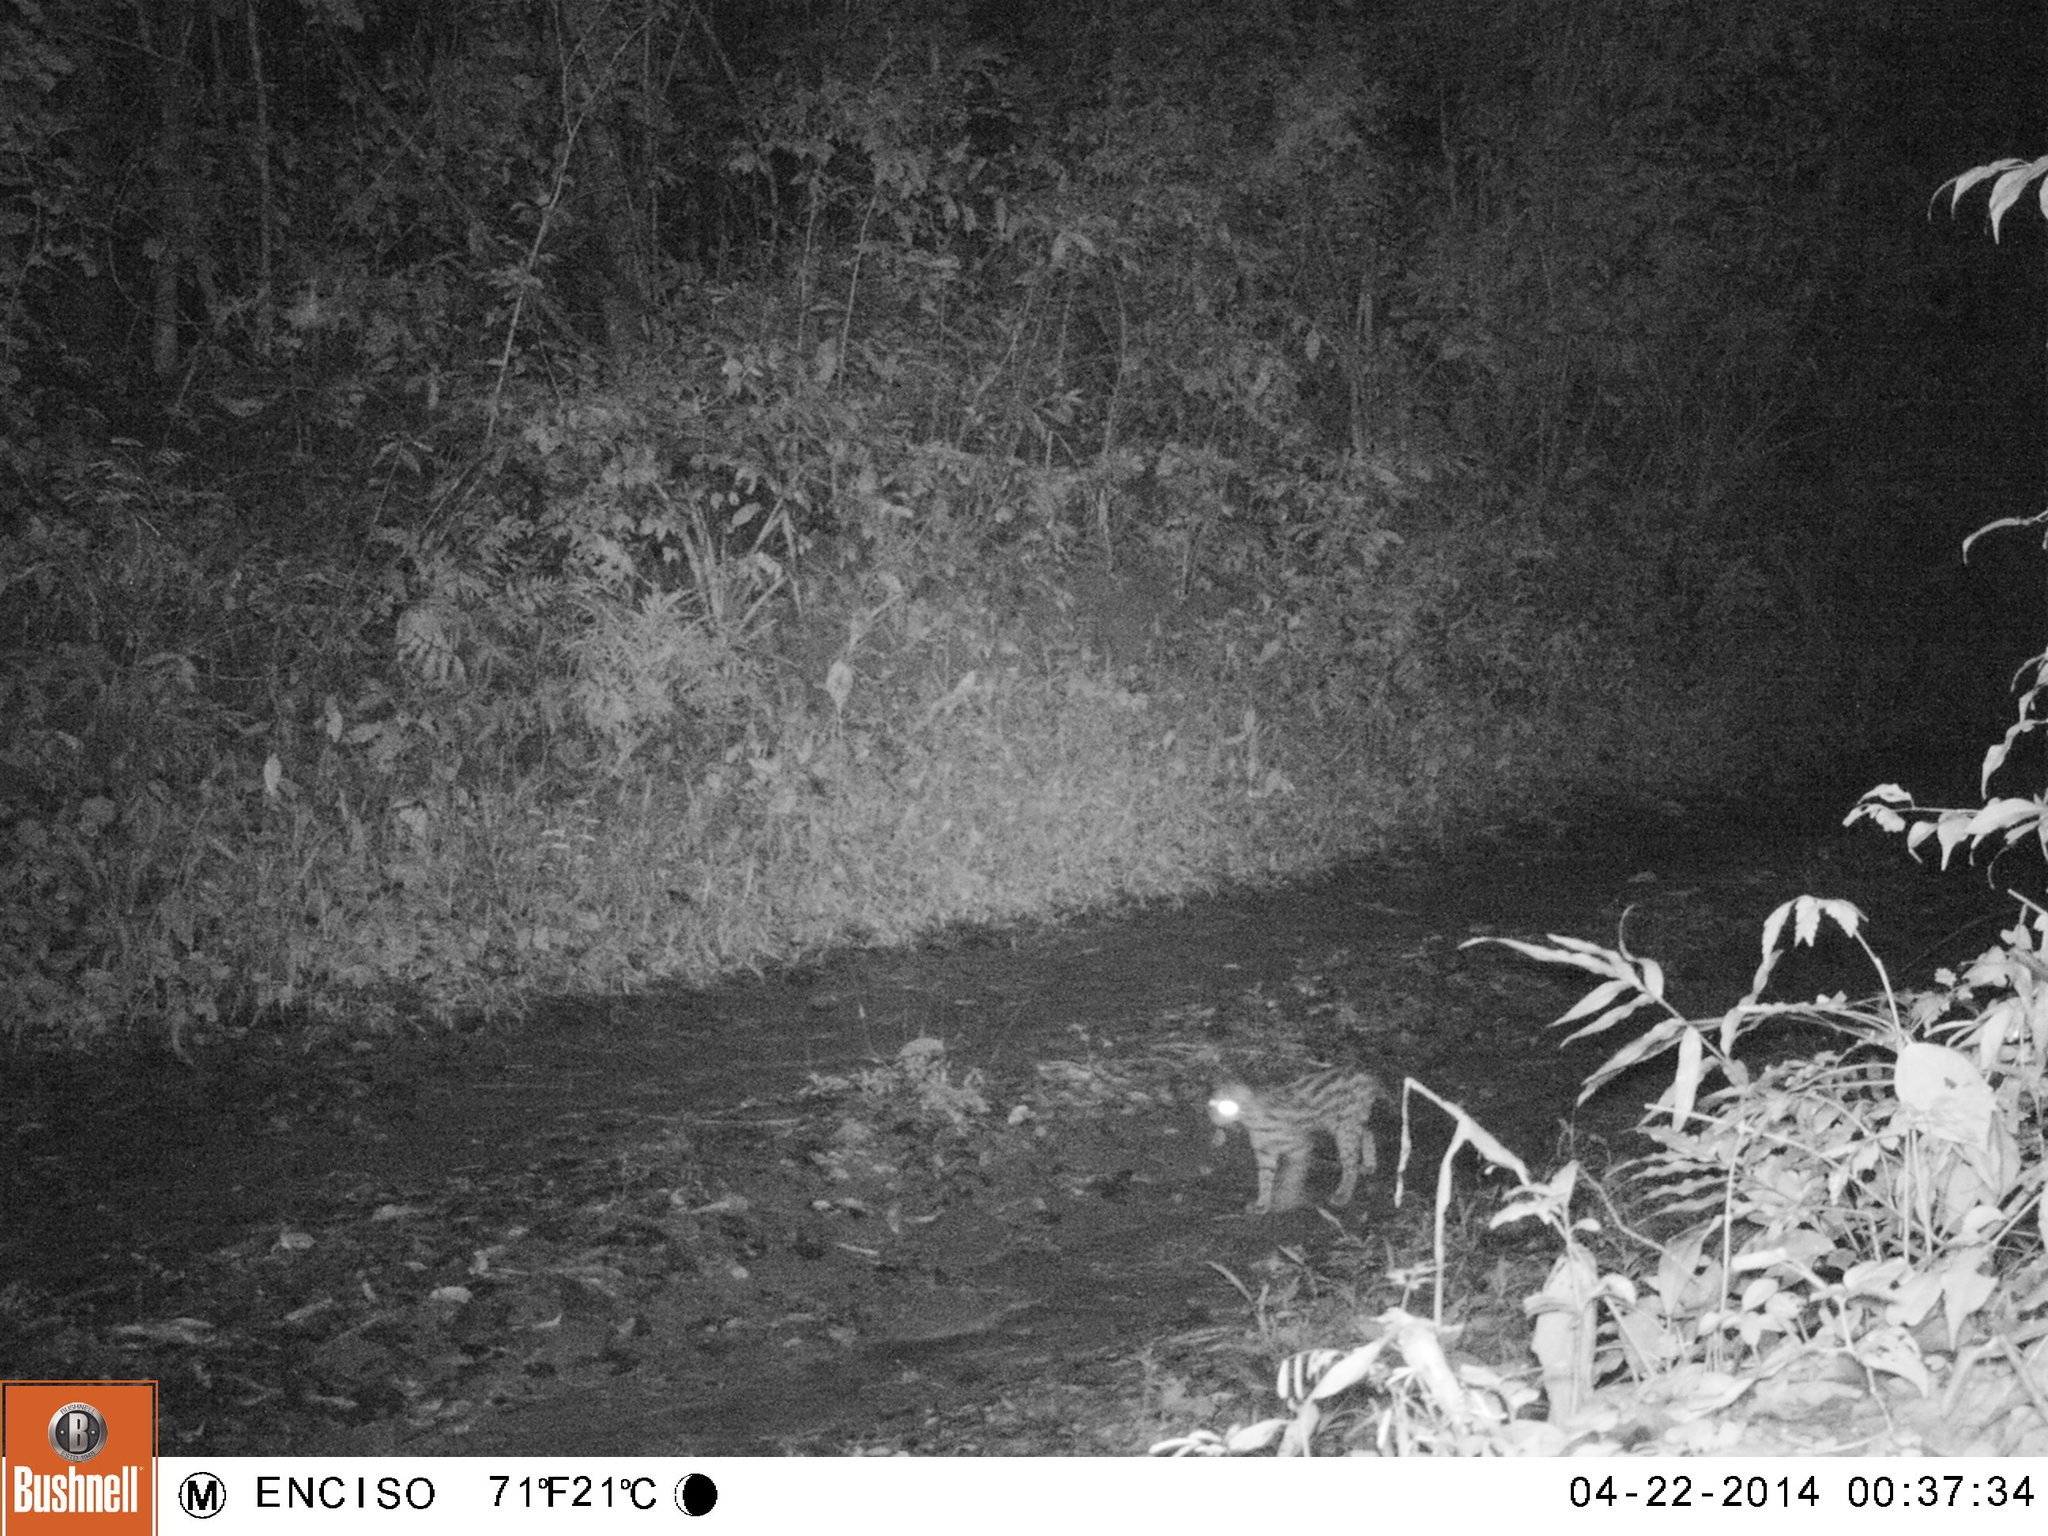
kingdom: Animalia
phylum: Chordata
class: Mammalia
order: Carnivora
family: Felidae
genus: Leopardus
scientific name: Leopardus guttulus
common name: Southern little spotted cat
